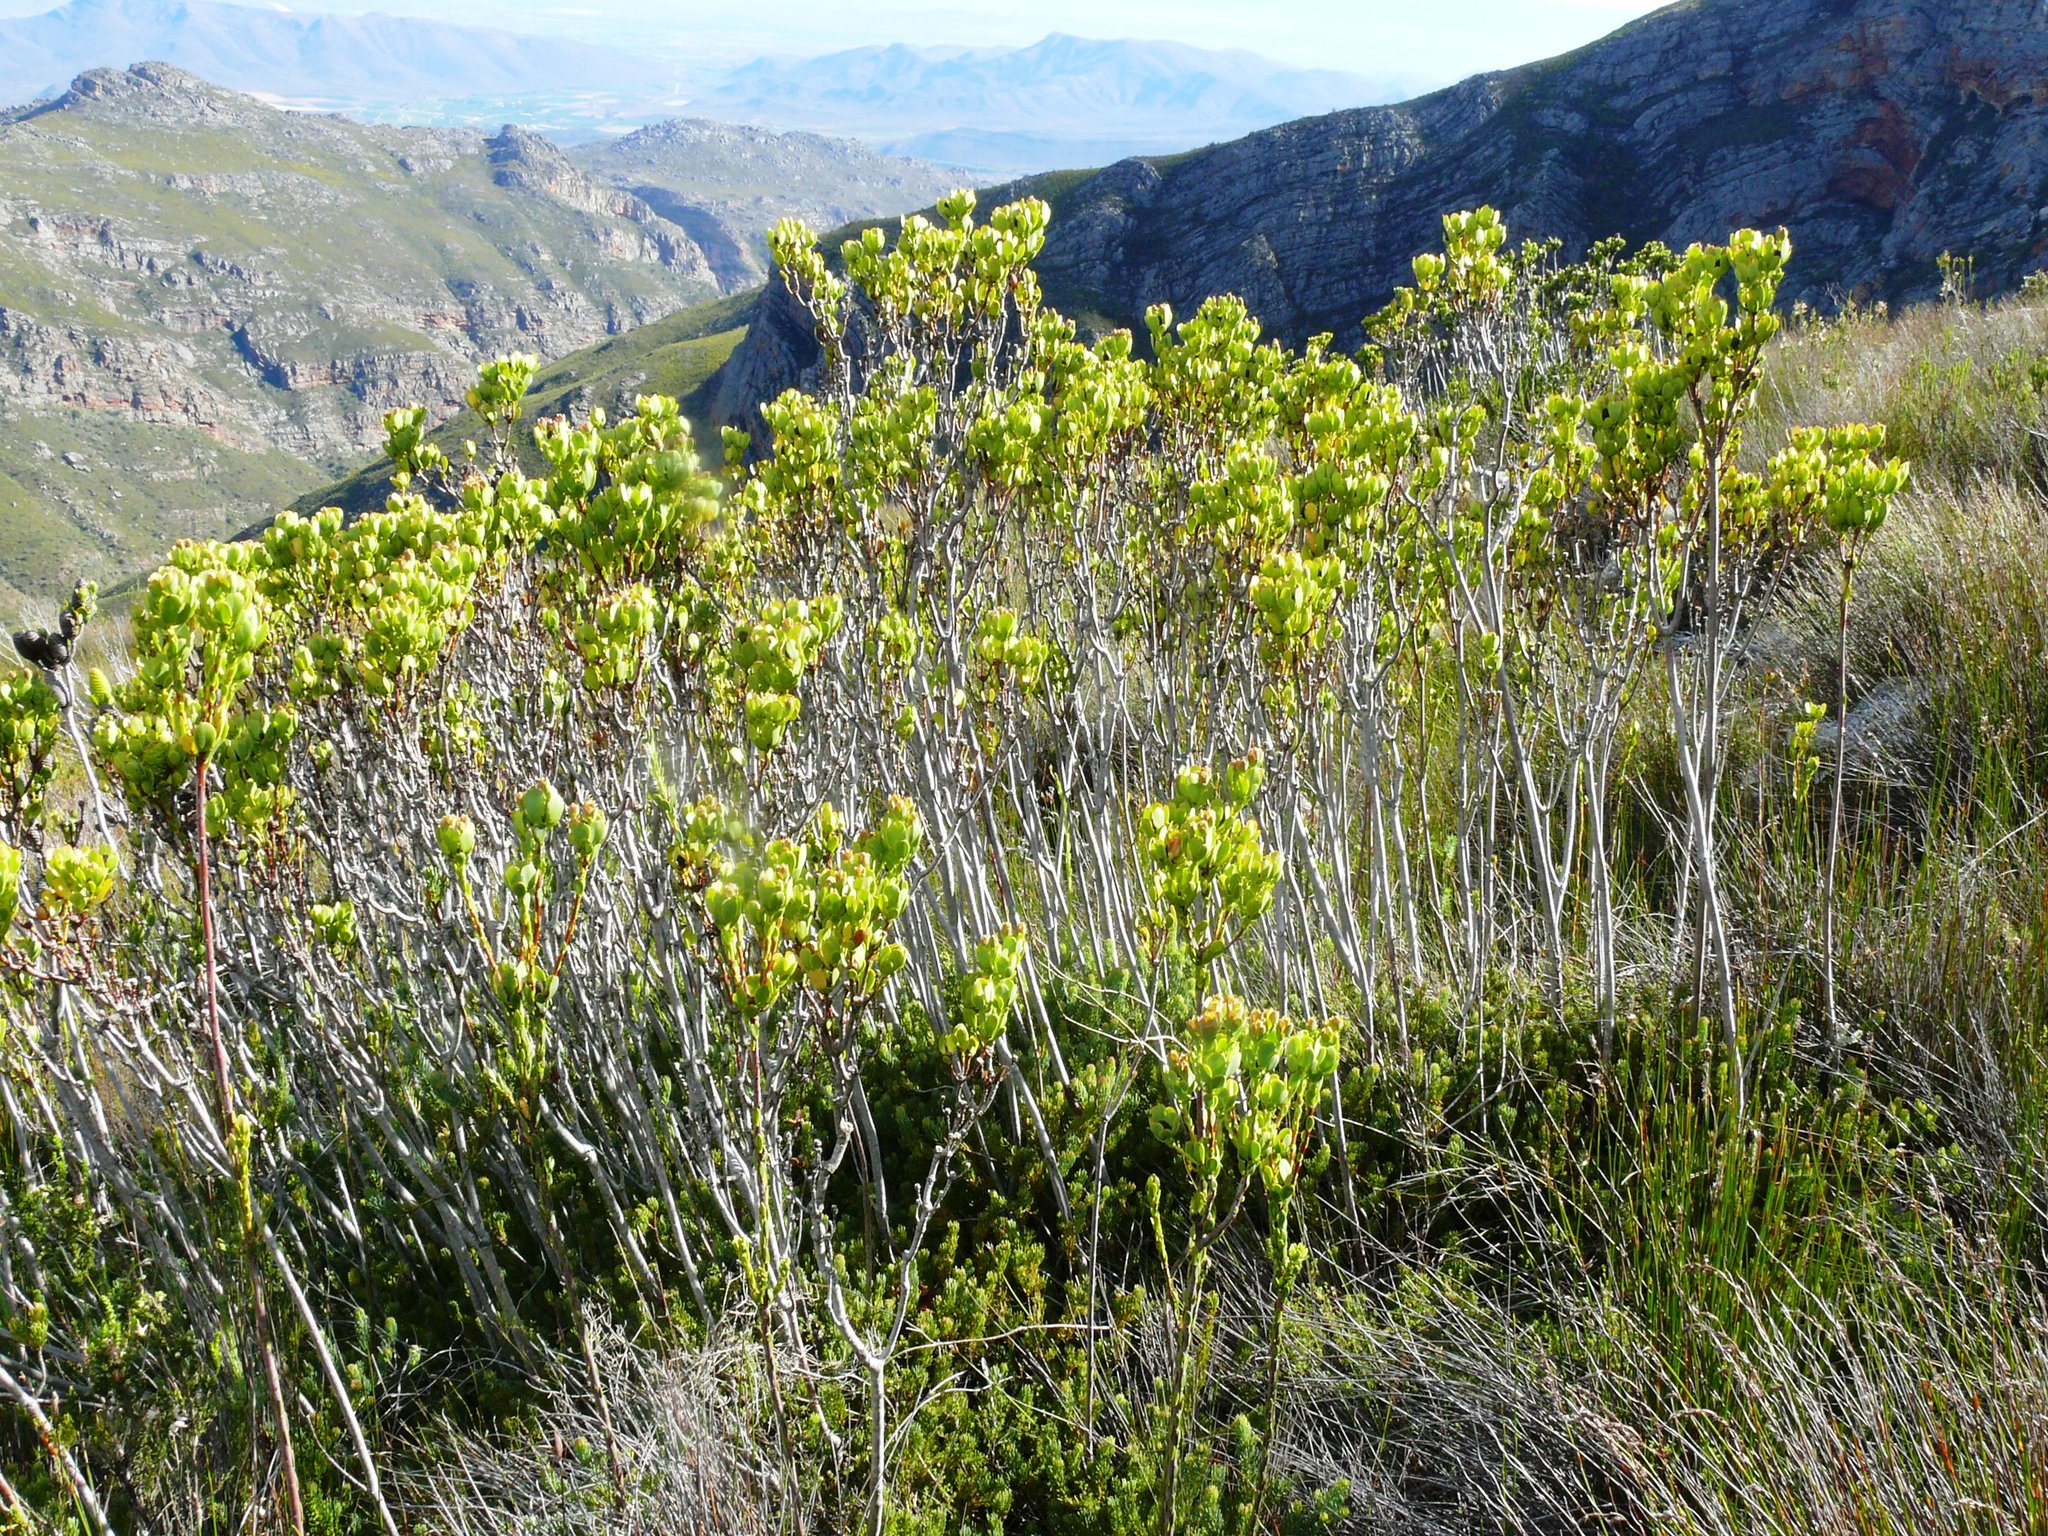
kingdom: Plantae
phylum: Tracheophyta
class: Magnoliopsida
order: Proteales
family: Proteaceae
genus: Leucadendron
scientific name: Leucadendron immoderatum
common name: Climax conebush
